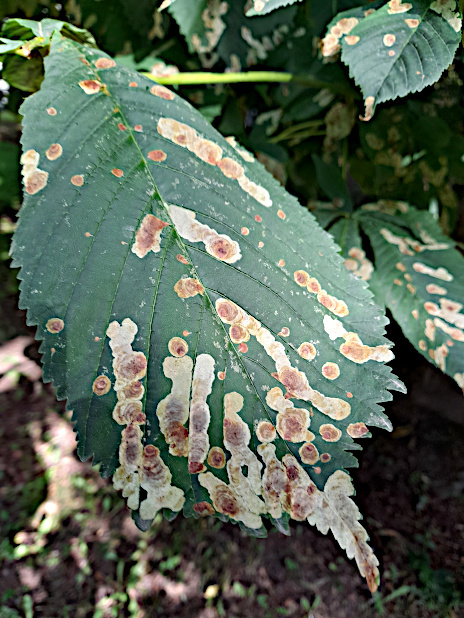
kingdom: Animalia
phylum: Arthropoda
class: Insecta
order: Lepidoptera
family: Gracillariidae
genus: Cameraria
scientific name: Cameraria ohridella
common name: Horse-chestnut leaf-miner
